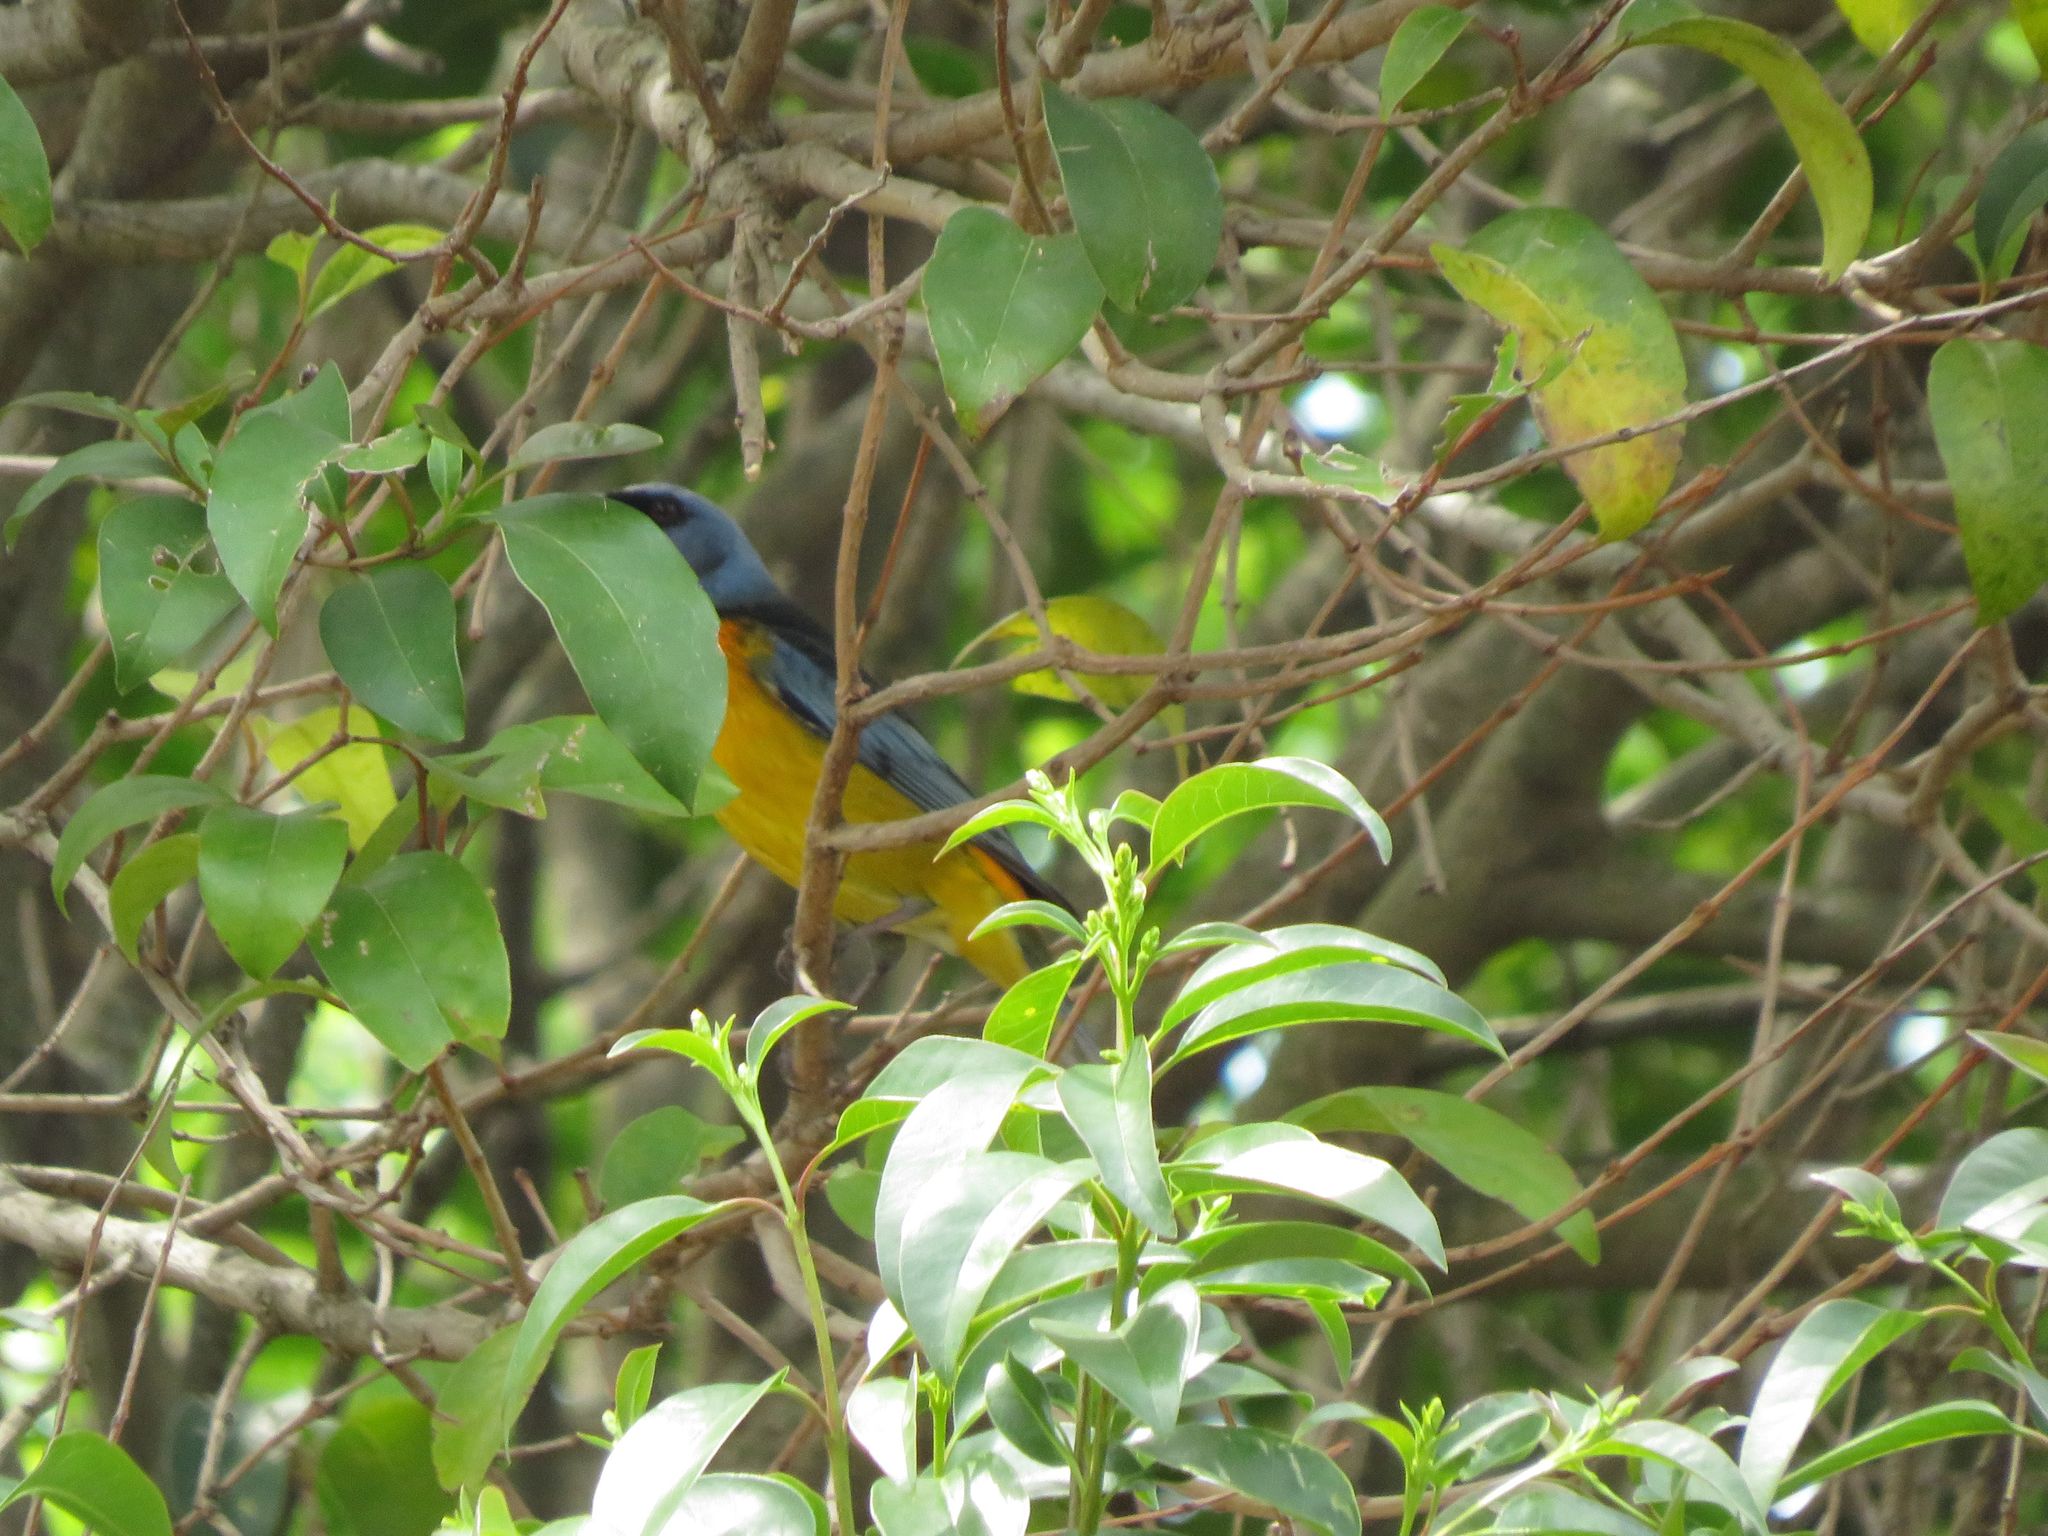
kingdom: Animalia
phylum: Chordata
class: Aves
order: Passeriformes
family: Thraupidae
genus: Rauenia
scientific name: Rauenia bonariensis
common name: Blue-and-yellow tanager
